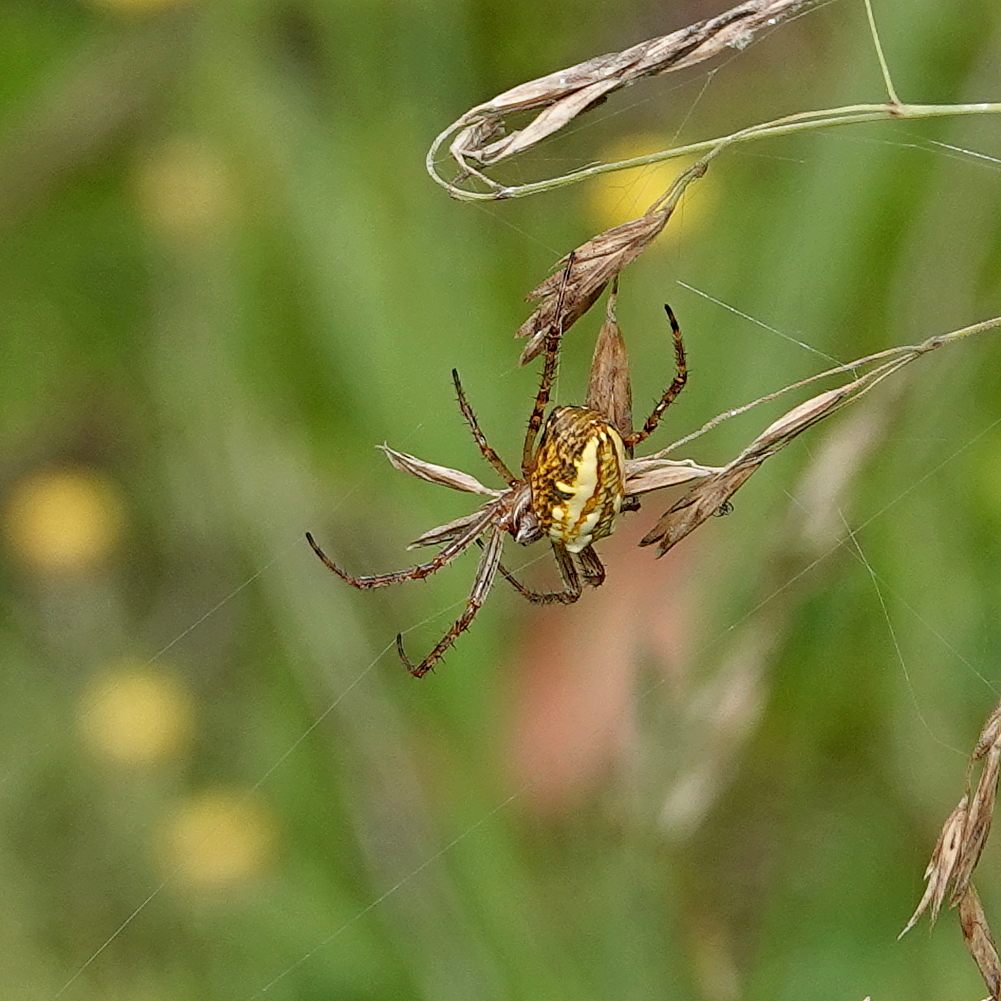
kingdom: Animalia
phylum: Arthropoda
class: Arachnida
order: Araneae
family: Araneidae
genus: Plebs
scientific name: Plebs bradleyi
